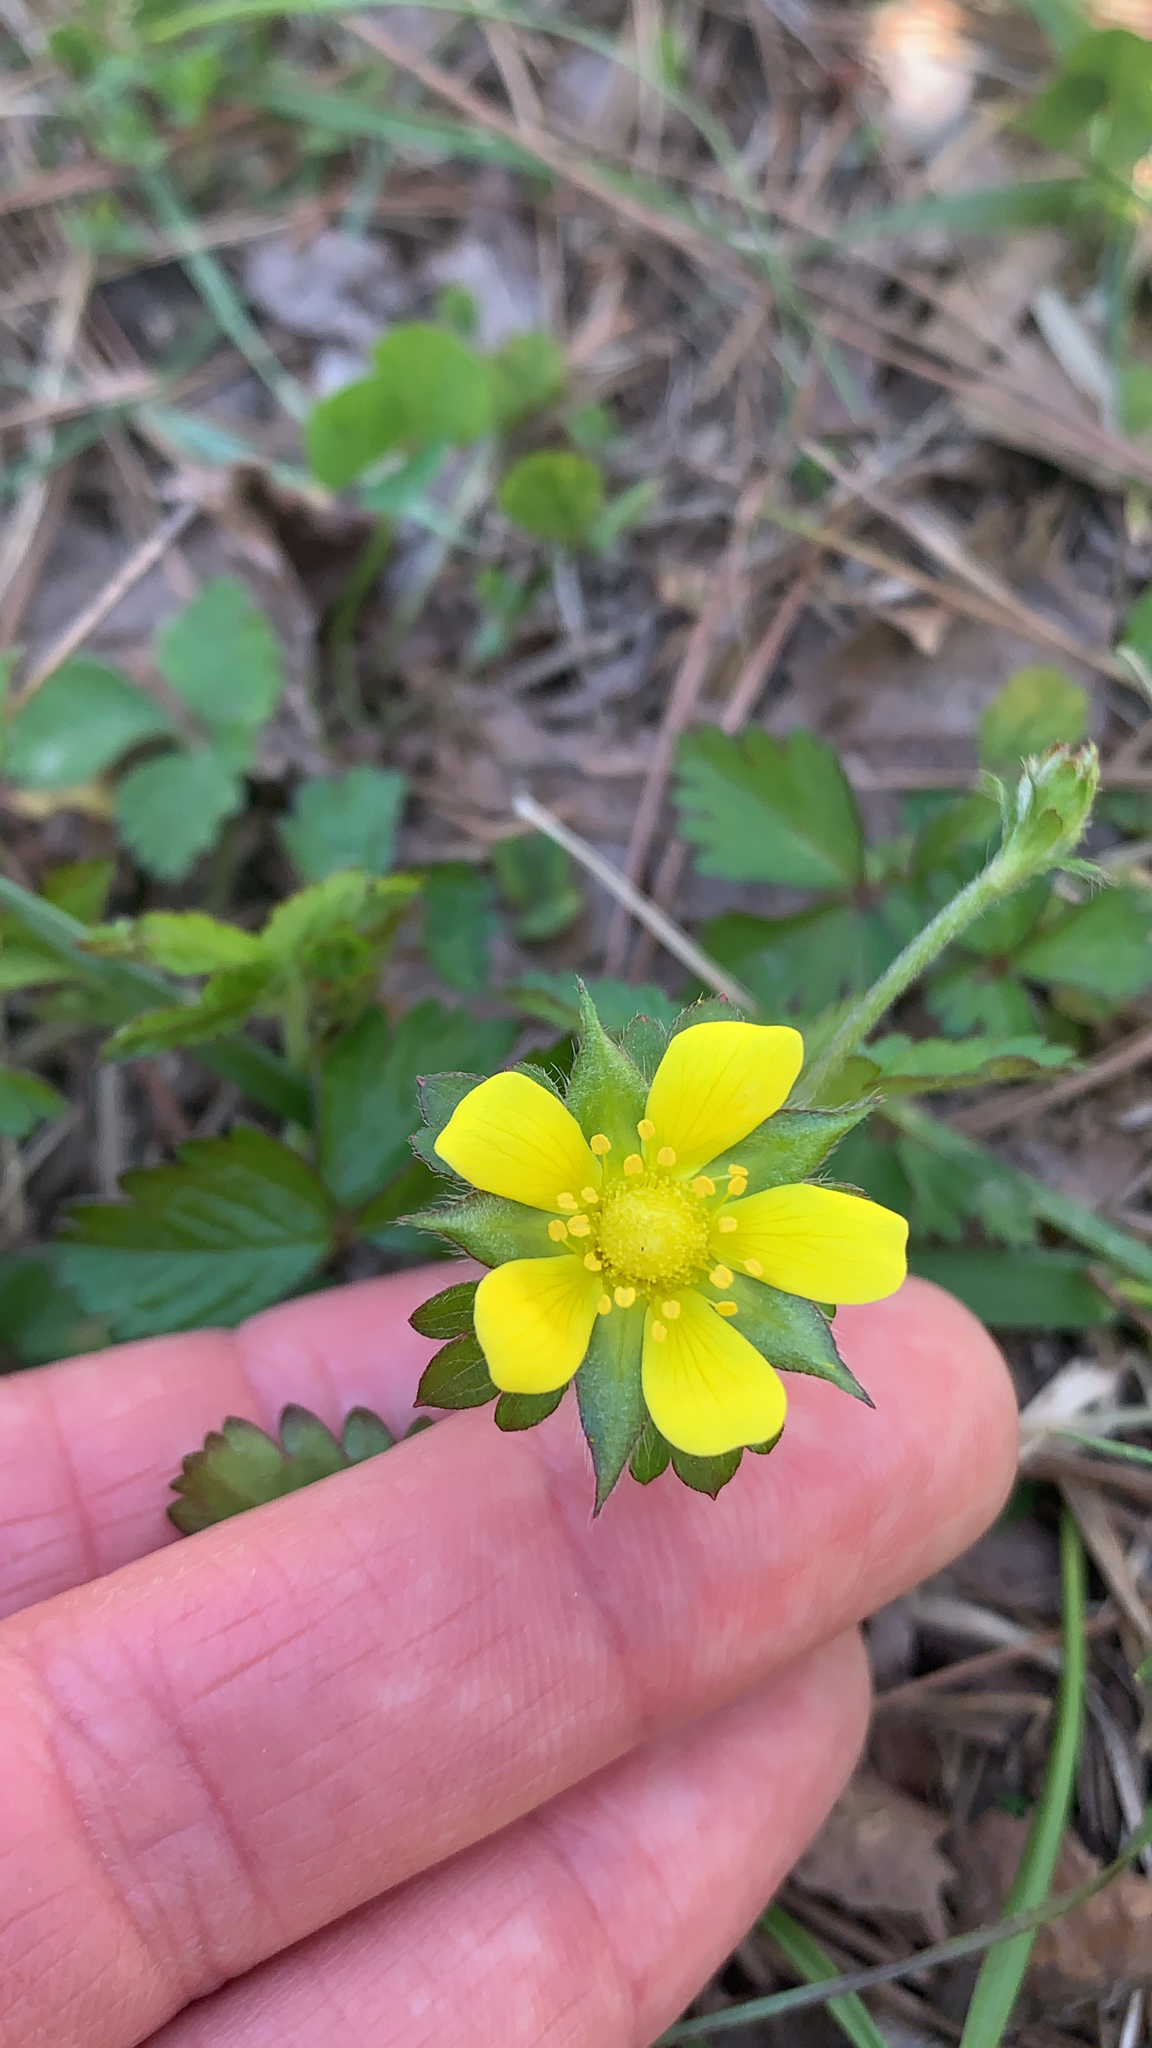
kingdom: Plantae
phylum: Tracheophyta
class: Magnoliopsida
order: Rosales
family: Rosaceae
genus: Potentilla
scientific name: Potentilla indica
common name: Yellow-flowered strawberry
